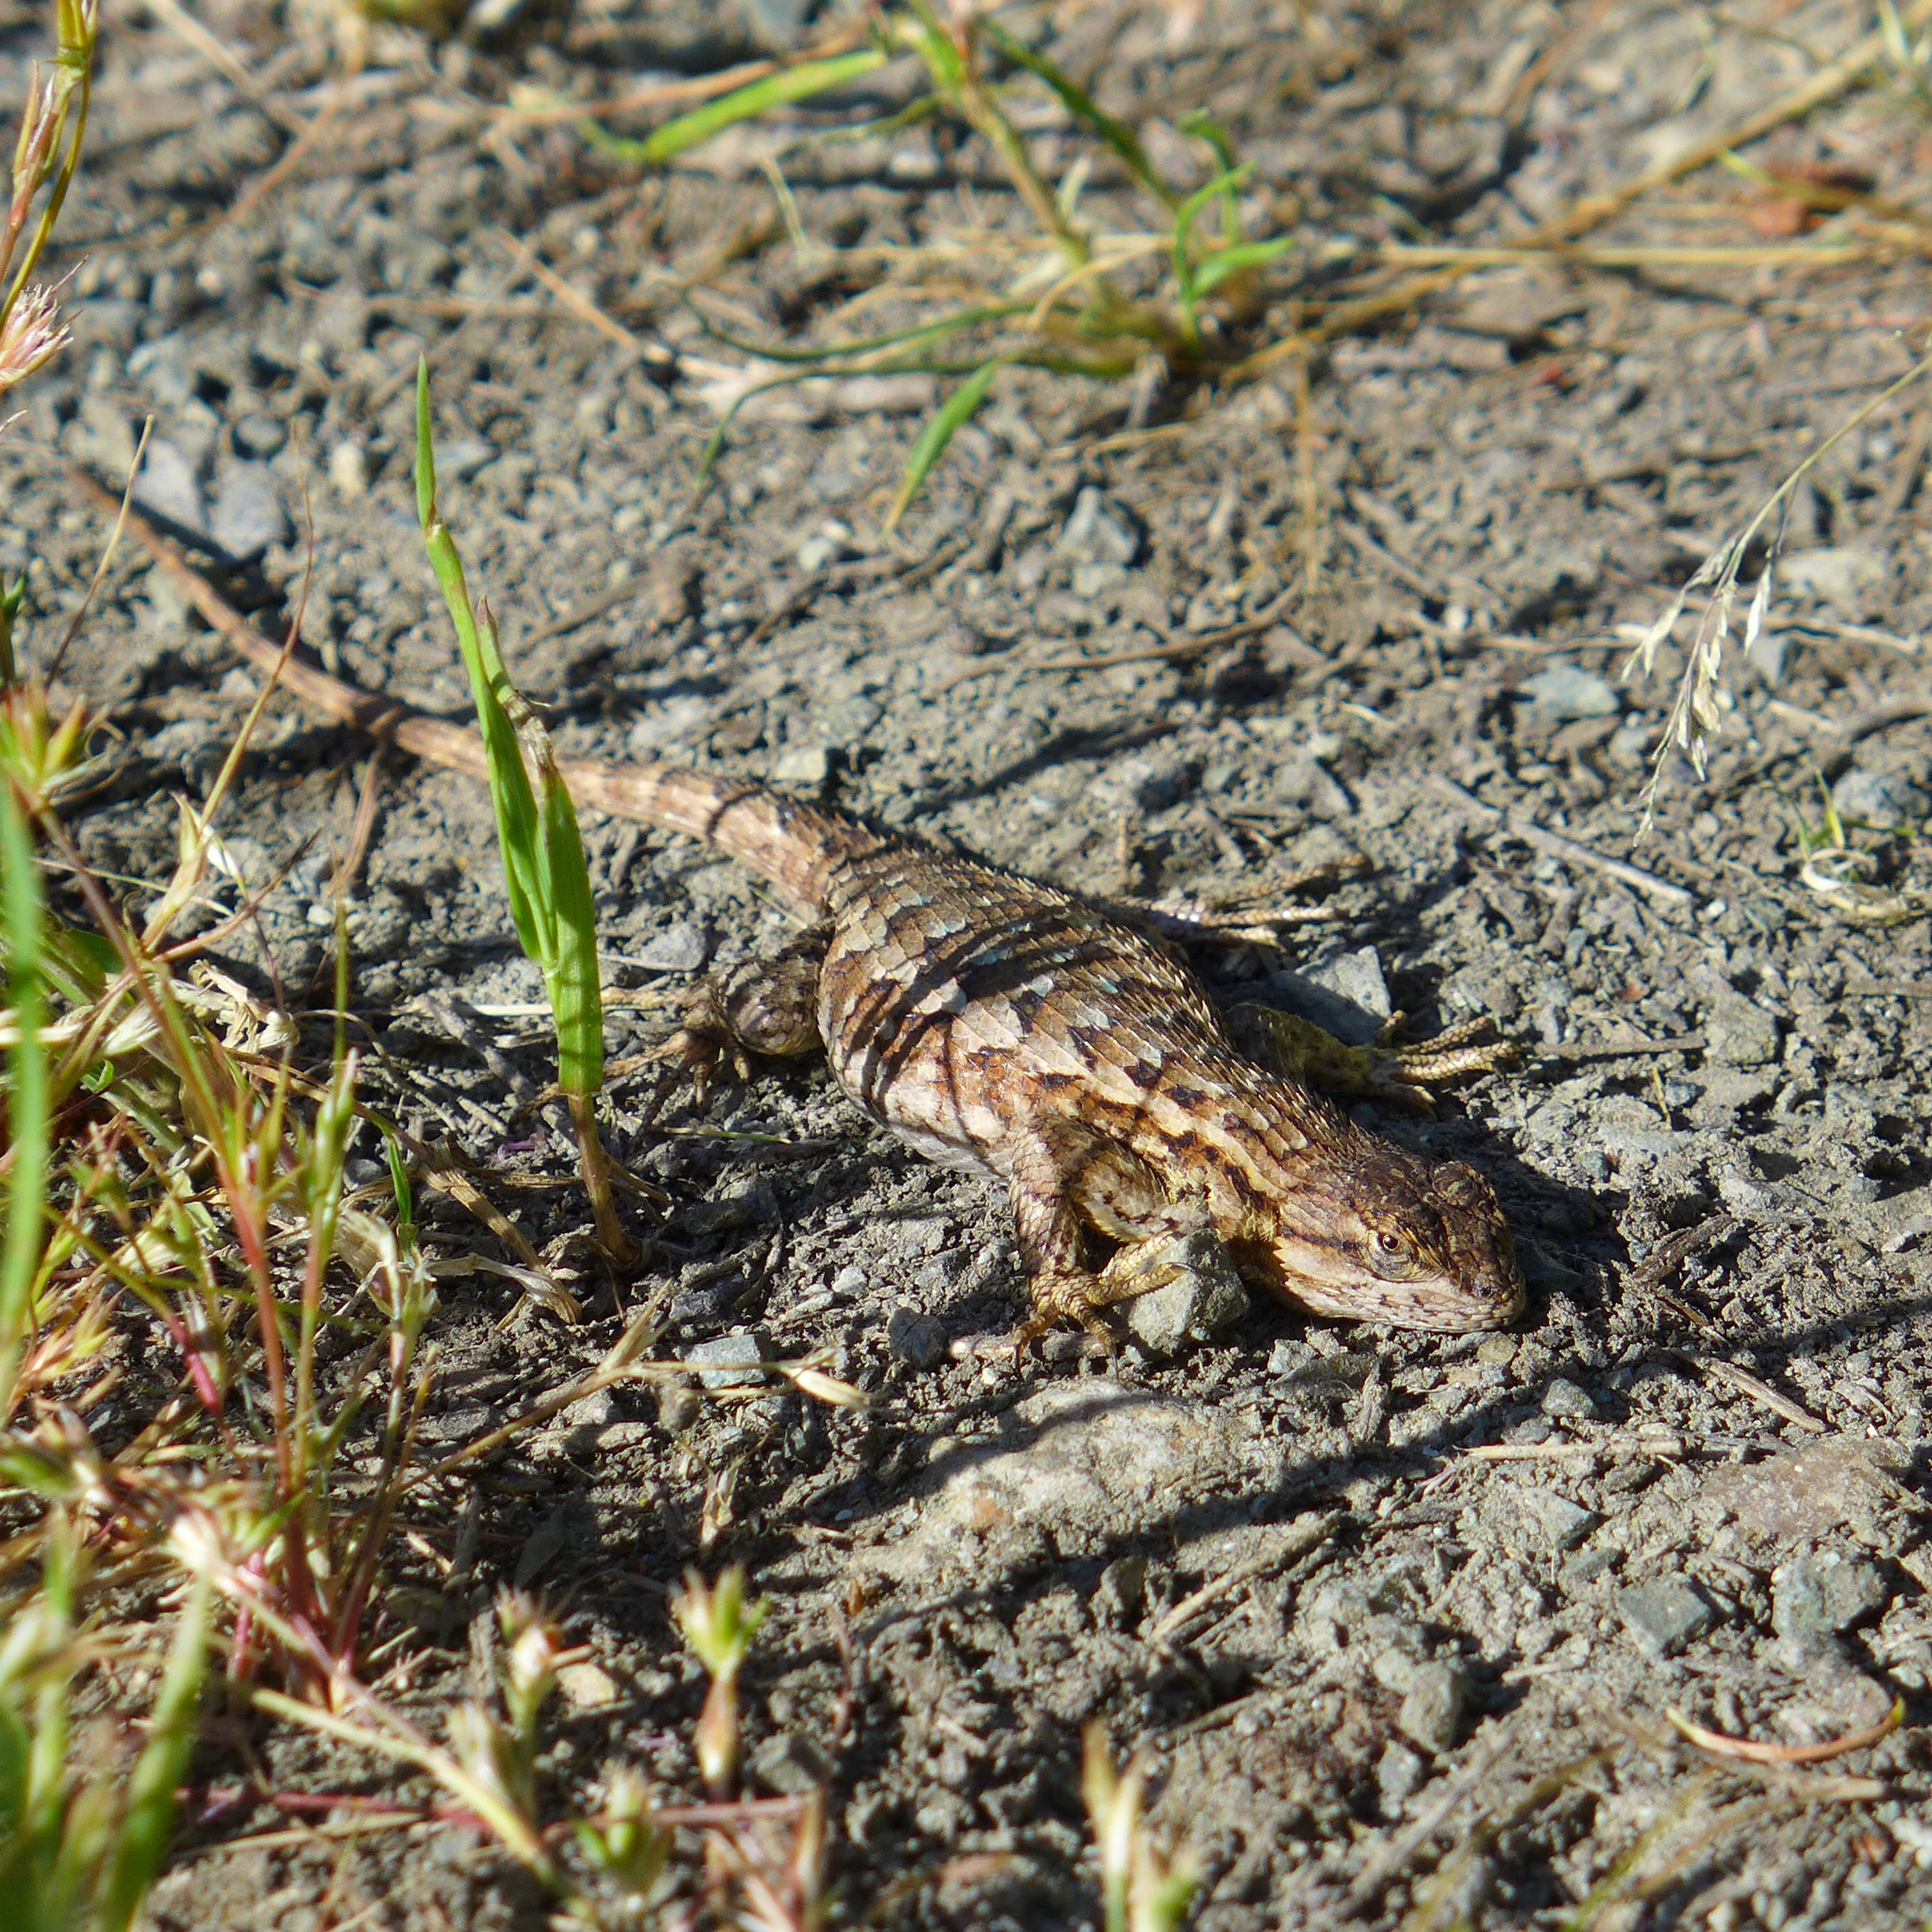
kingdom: Animalia
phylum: Chordata
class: Squamata
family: Phrynosomatidae
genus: Sceloporus
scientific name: Sceloporus occidentalis
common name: Western fence lizard
